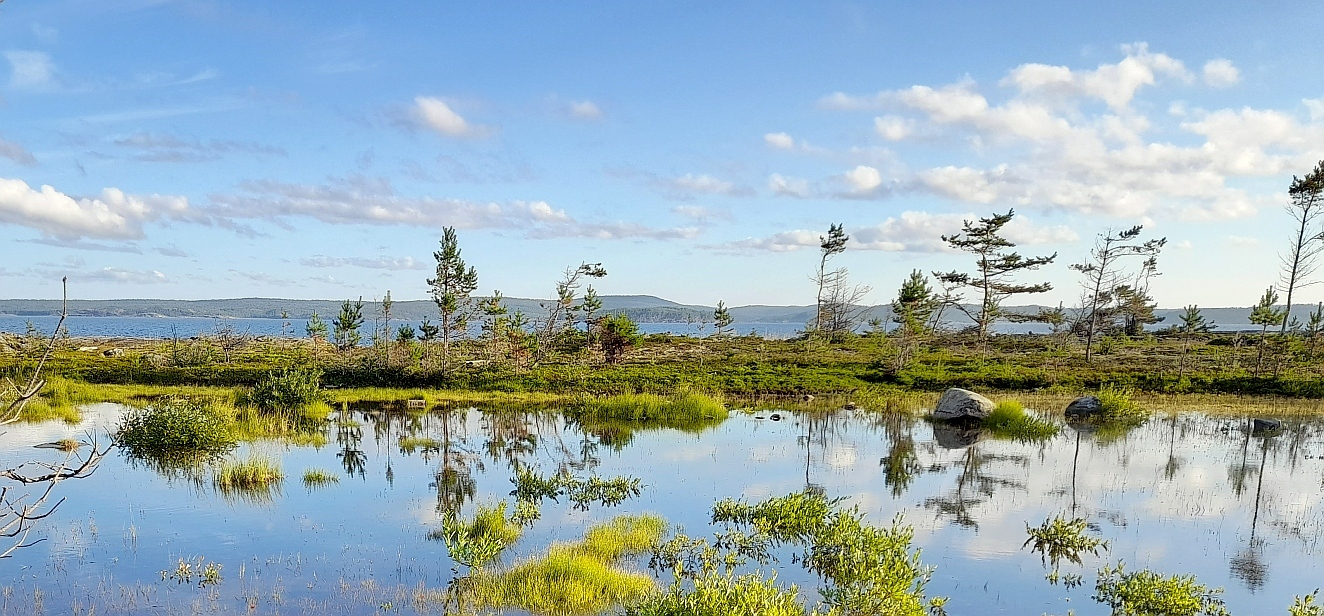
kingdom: Plantae
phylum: Tracheophyta
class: Pinopsida
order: Pinales
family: Pinaceae
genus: Pinus
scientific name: Pinus sylvestris
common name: Scots pine
